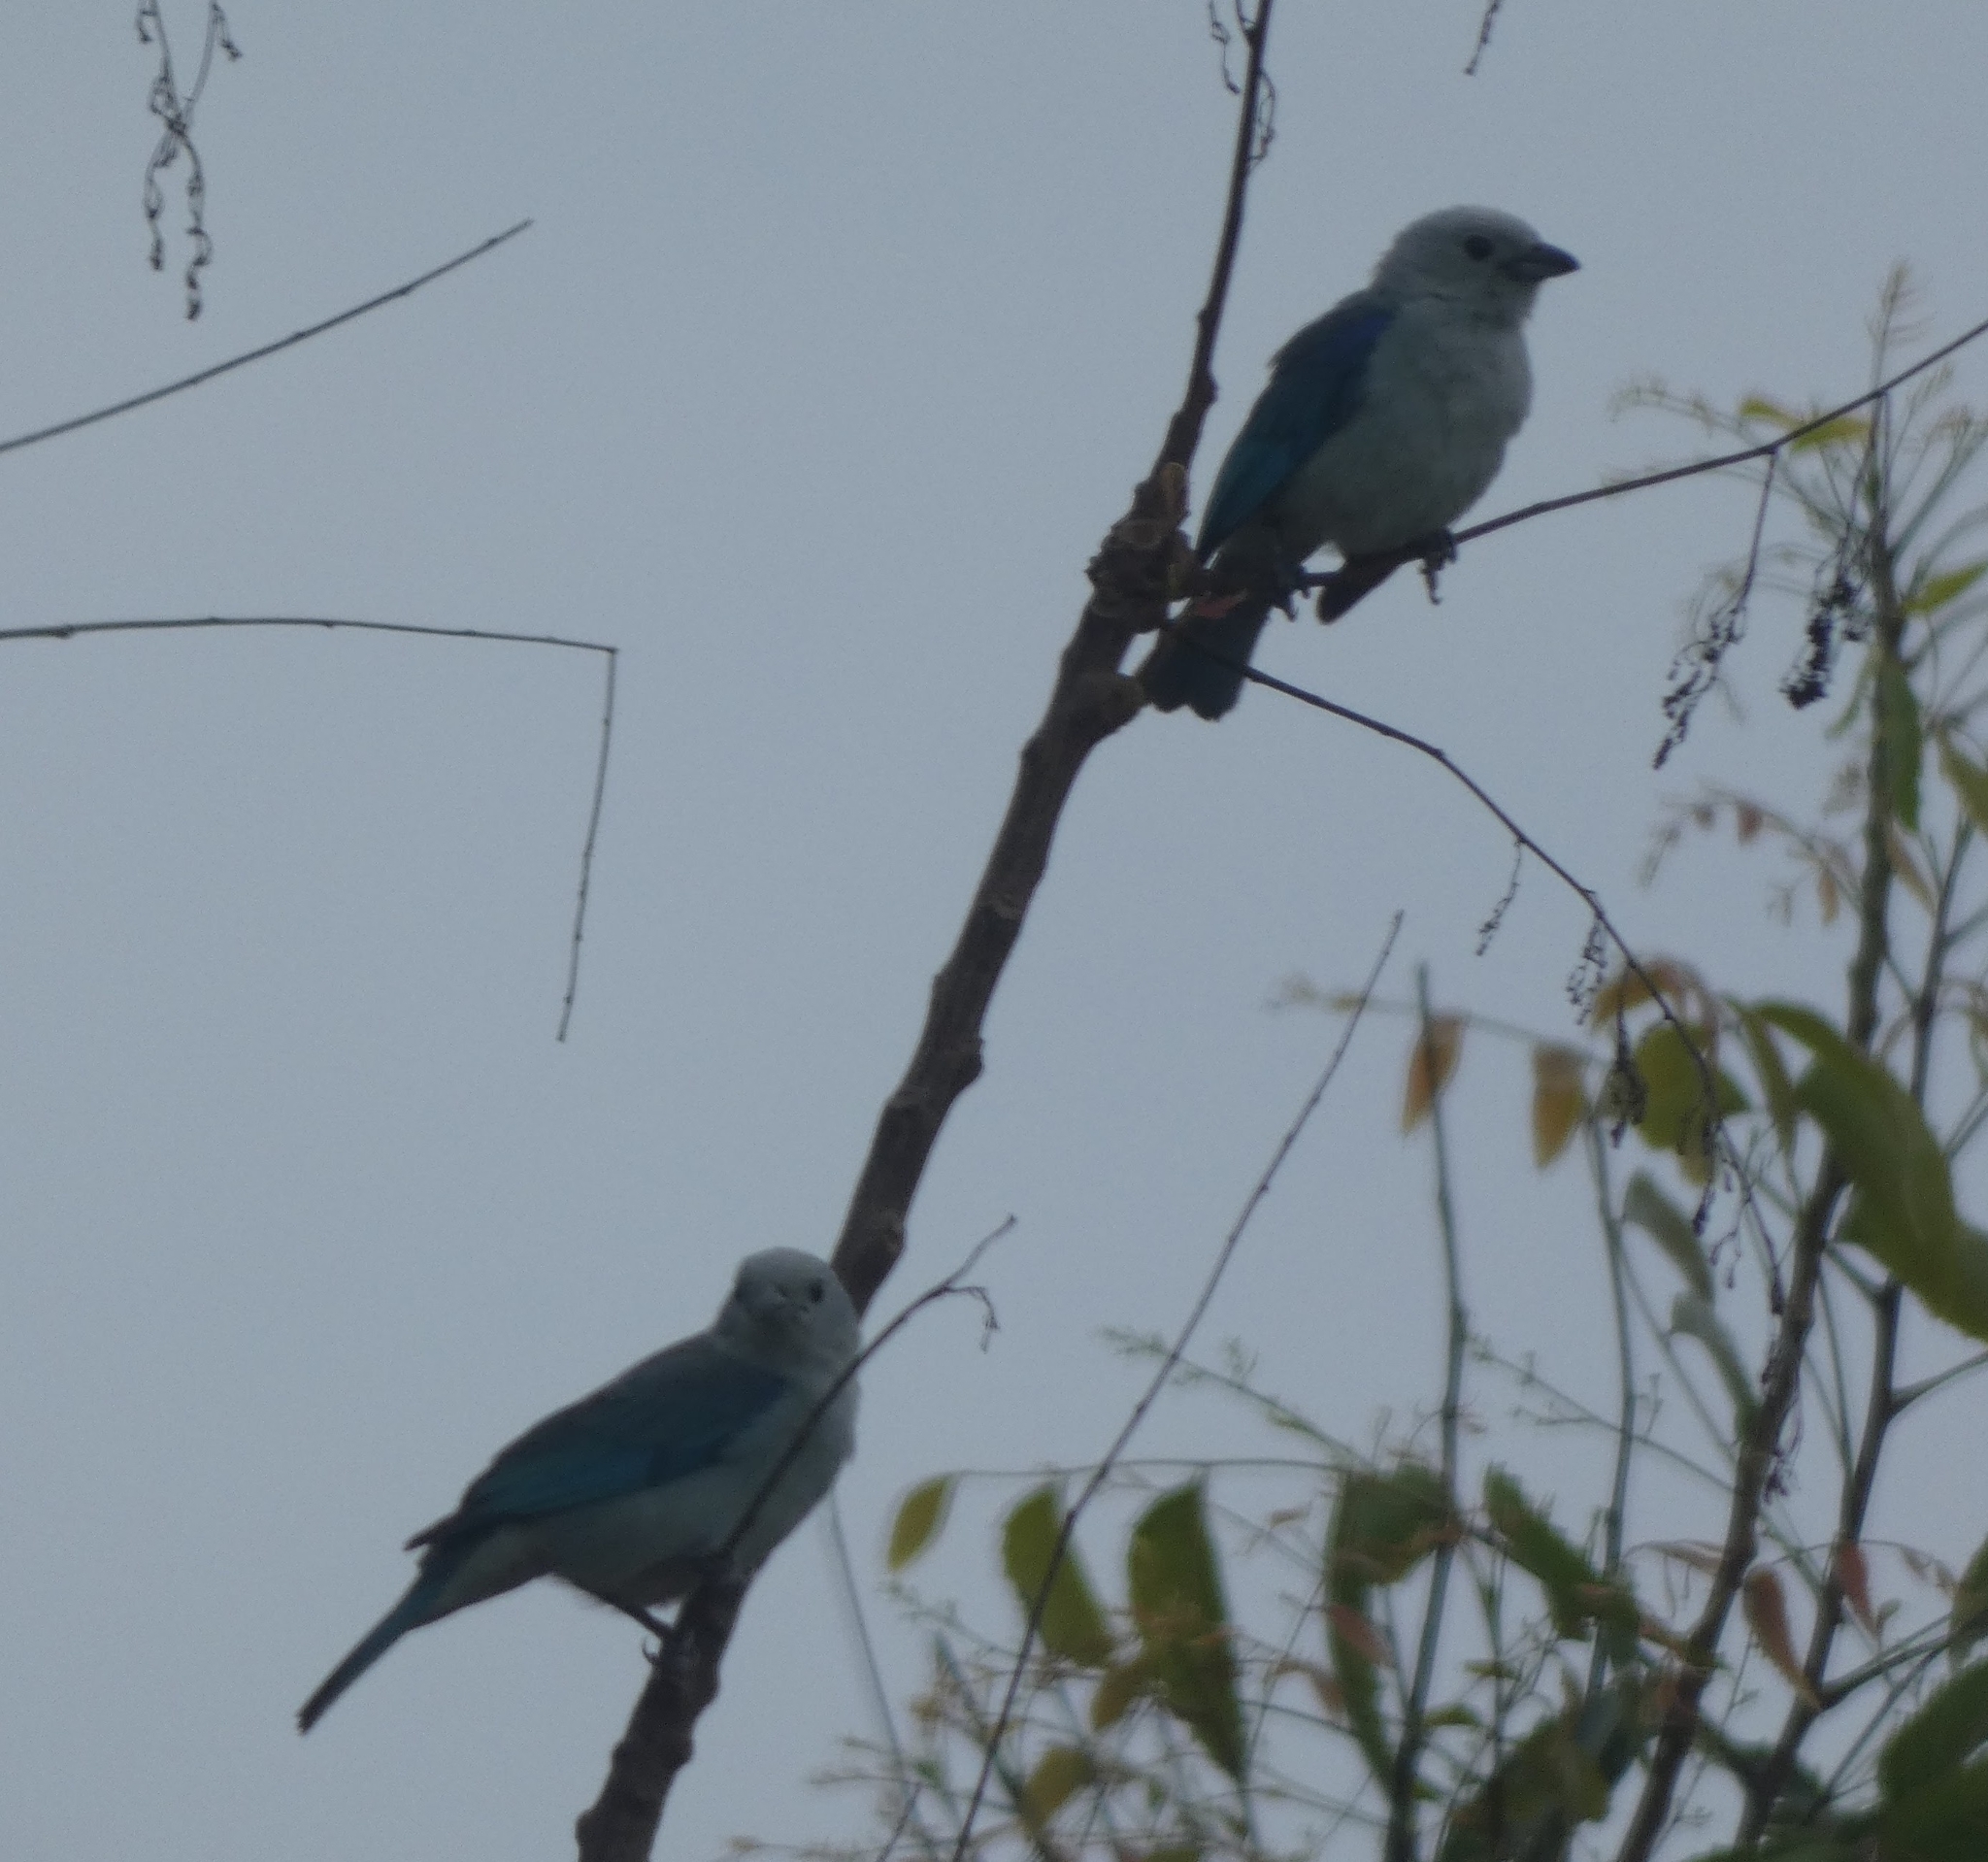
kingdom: Animalia
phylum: Chordata
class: Aves
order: Passeriformes
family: Thraupidae
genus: Thraupis
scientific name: Thraupis episcopus
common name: Blue-grey tanager
